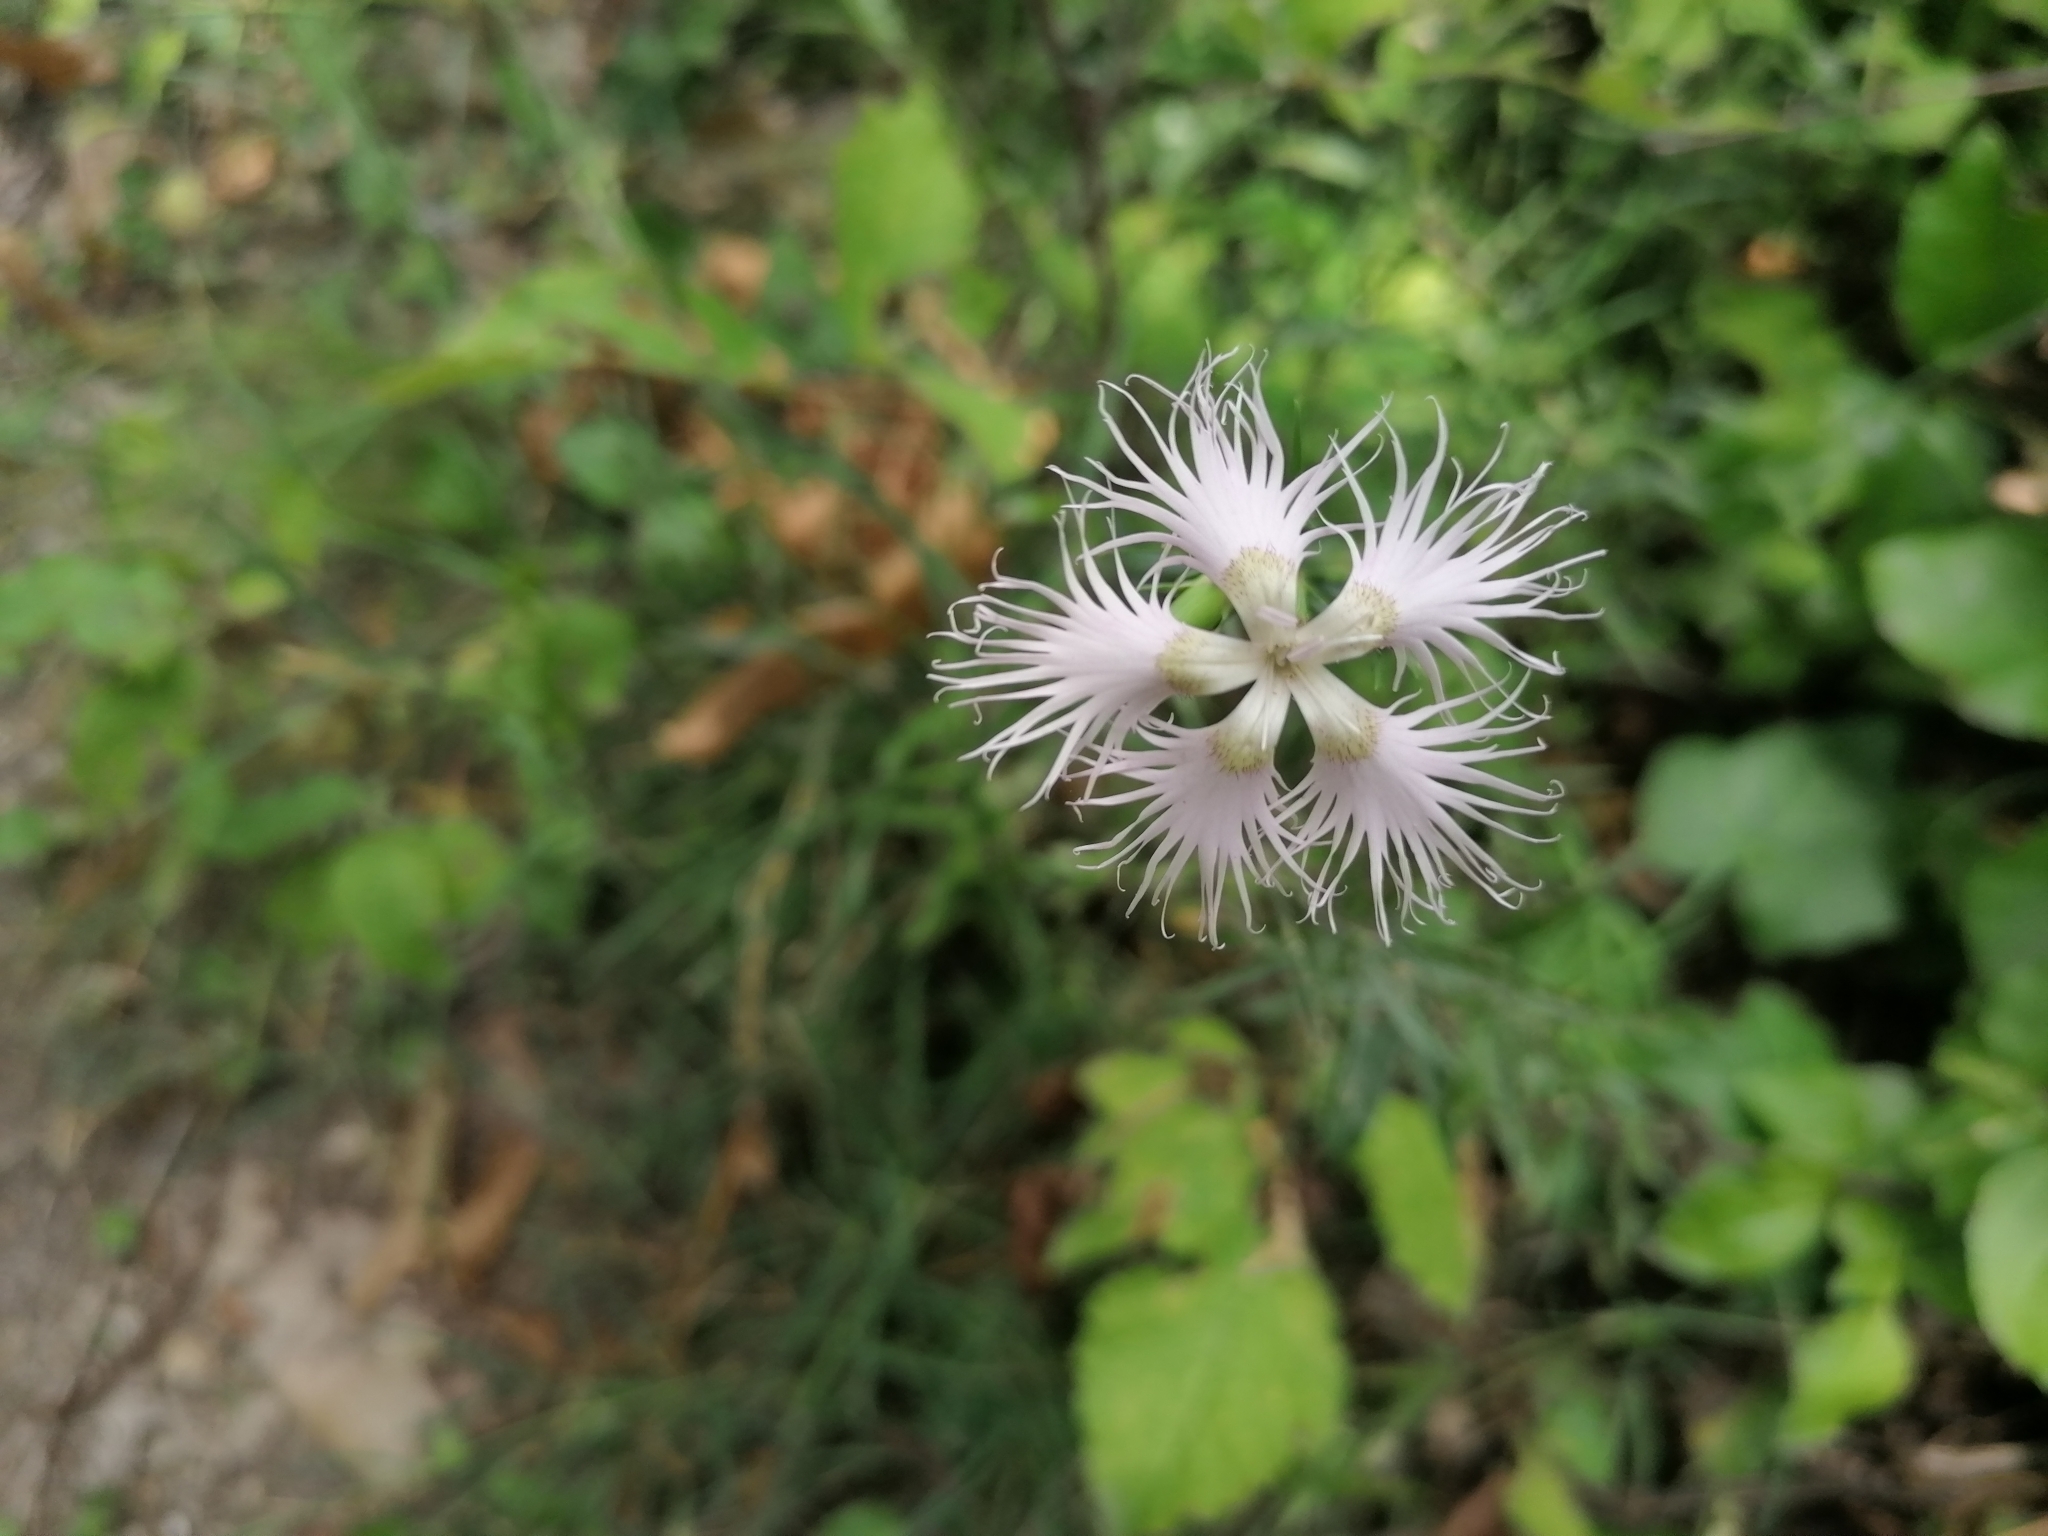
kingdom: Plantae
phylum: Tracheophyta
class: Magnoliopsida
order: Caryophyllales
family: Caryophyllaceae
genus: Dianthus
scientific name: Dianthus hyssopifolius
